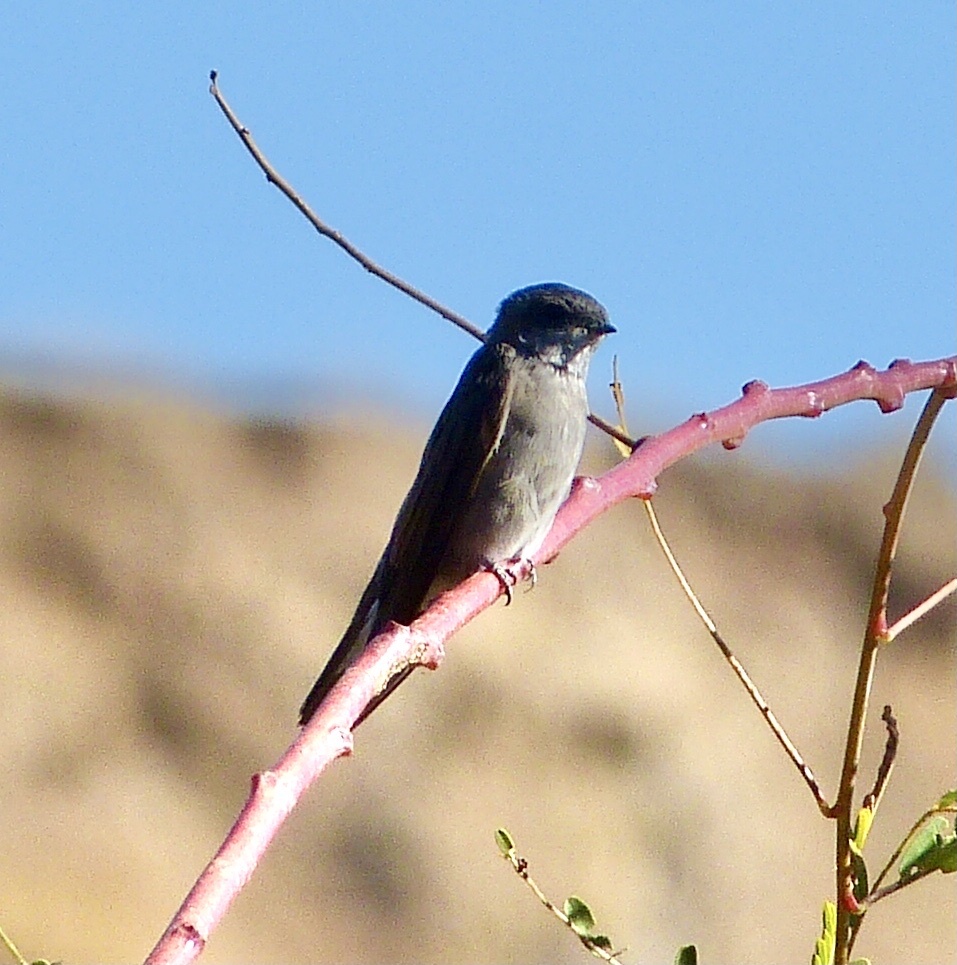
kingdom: Animalia
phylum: Chordata
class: Aves
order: Passeriformes
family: Hirundinidae
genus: Riparia
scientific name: Riparia paludicola
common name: Brown-throated martin
